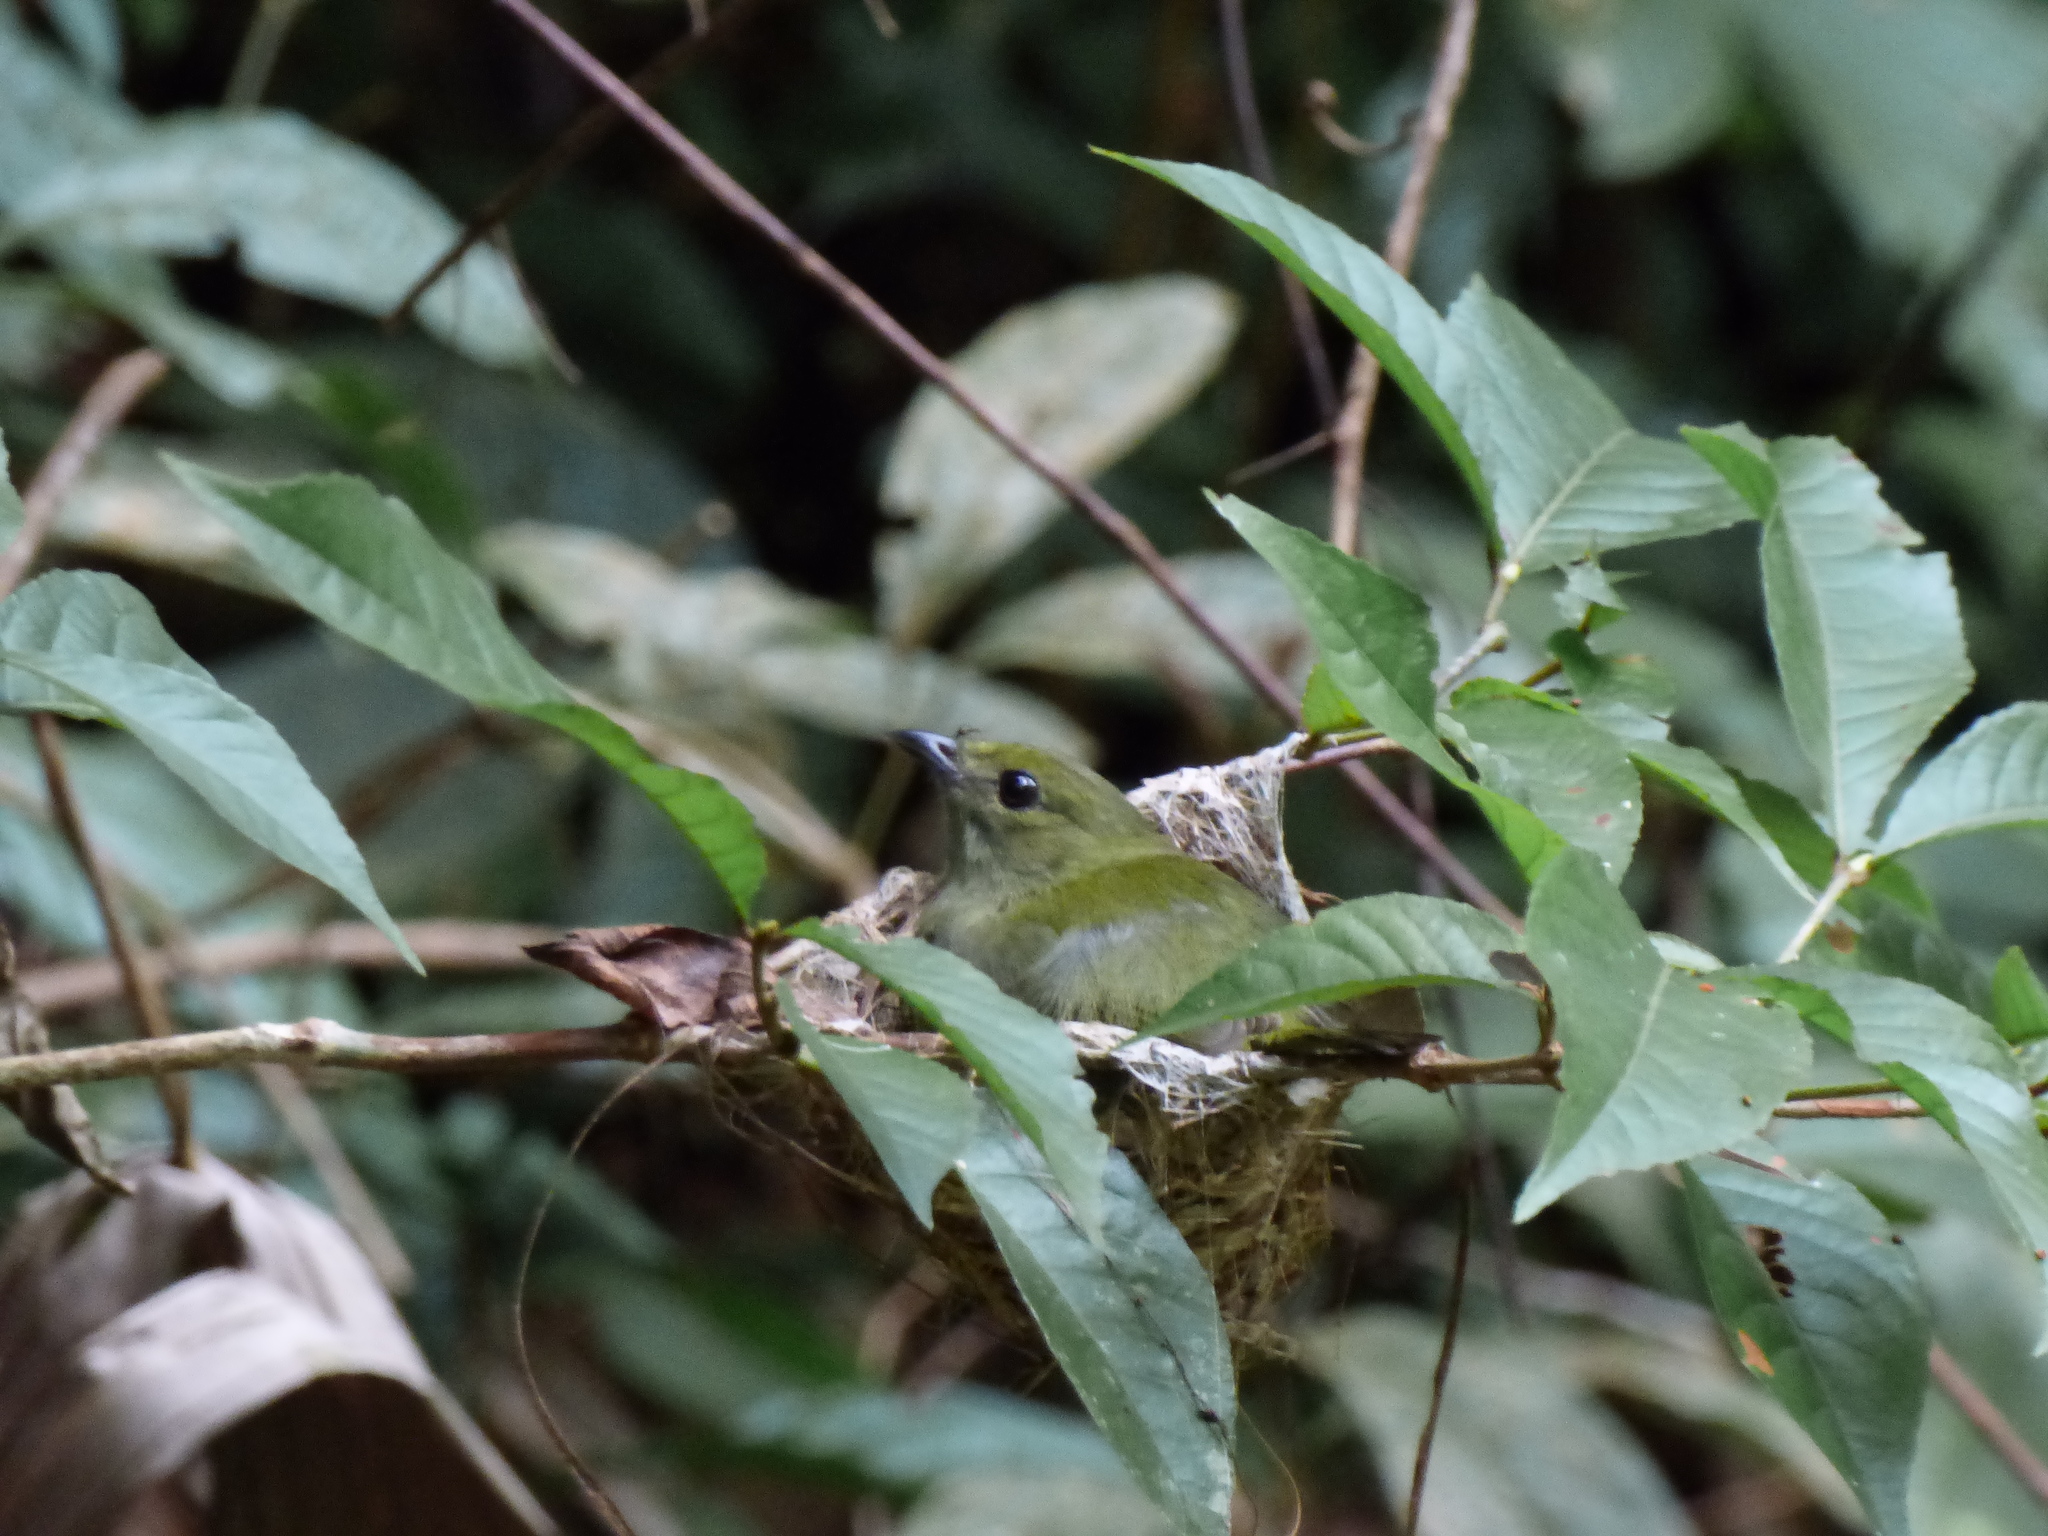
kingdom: Animalia
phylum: Chordata
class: Aves
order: Passeriformes
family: Pipridae
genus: Manacus
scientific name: Manacus manacus
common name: White-bearded manakin
